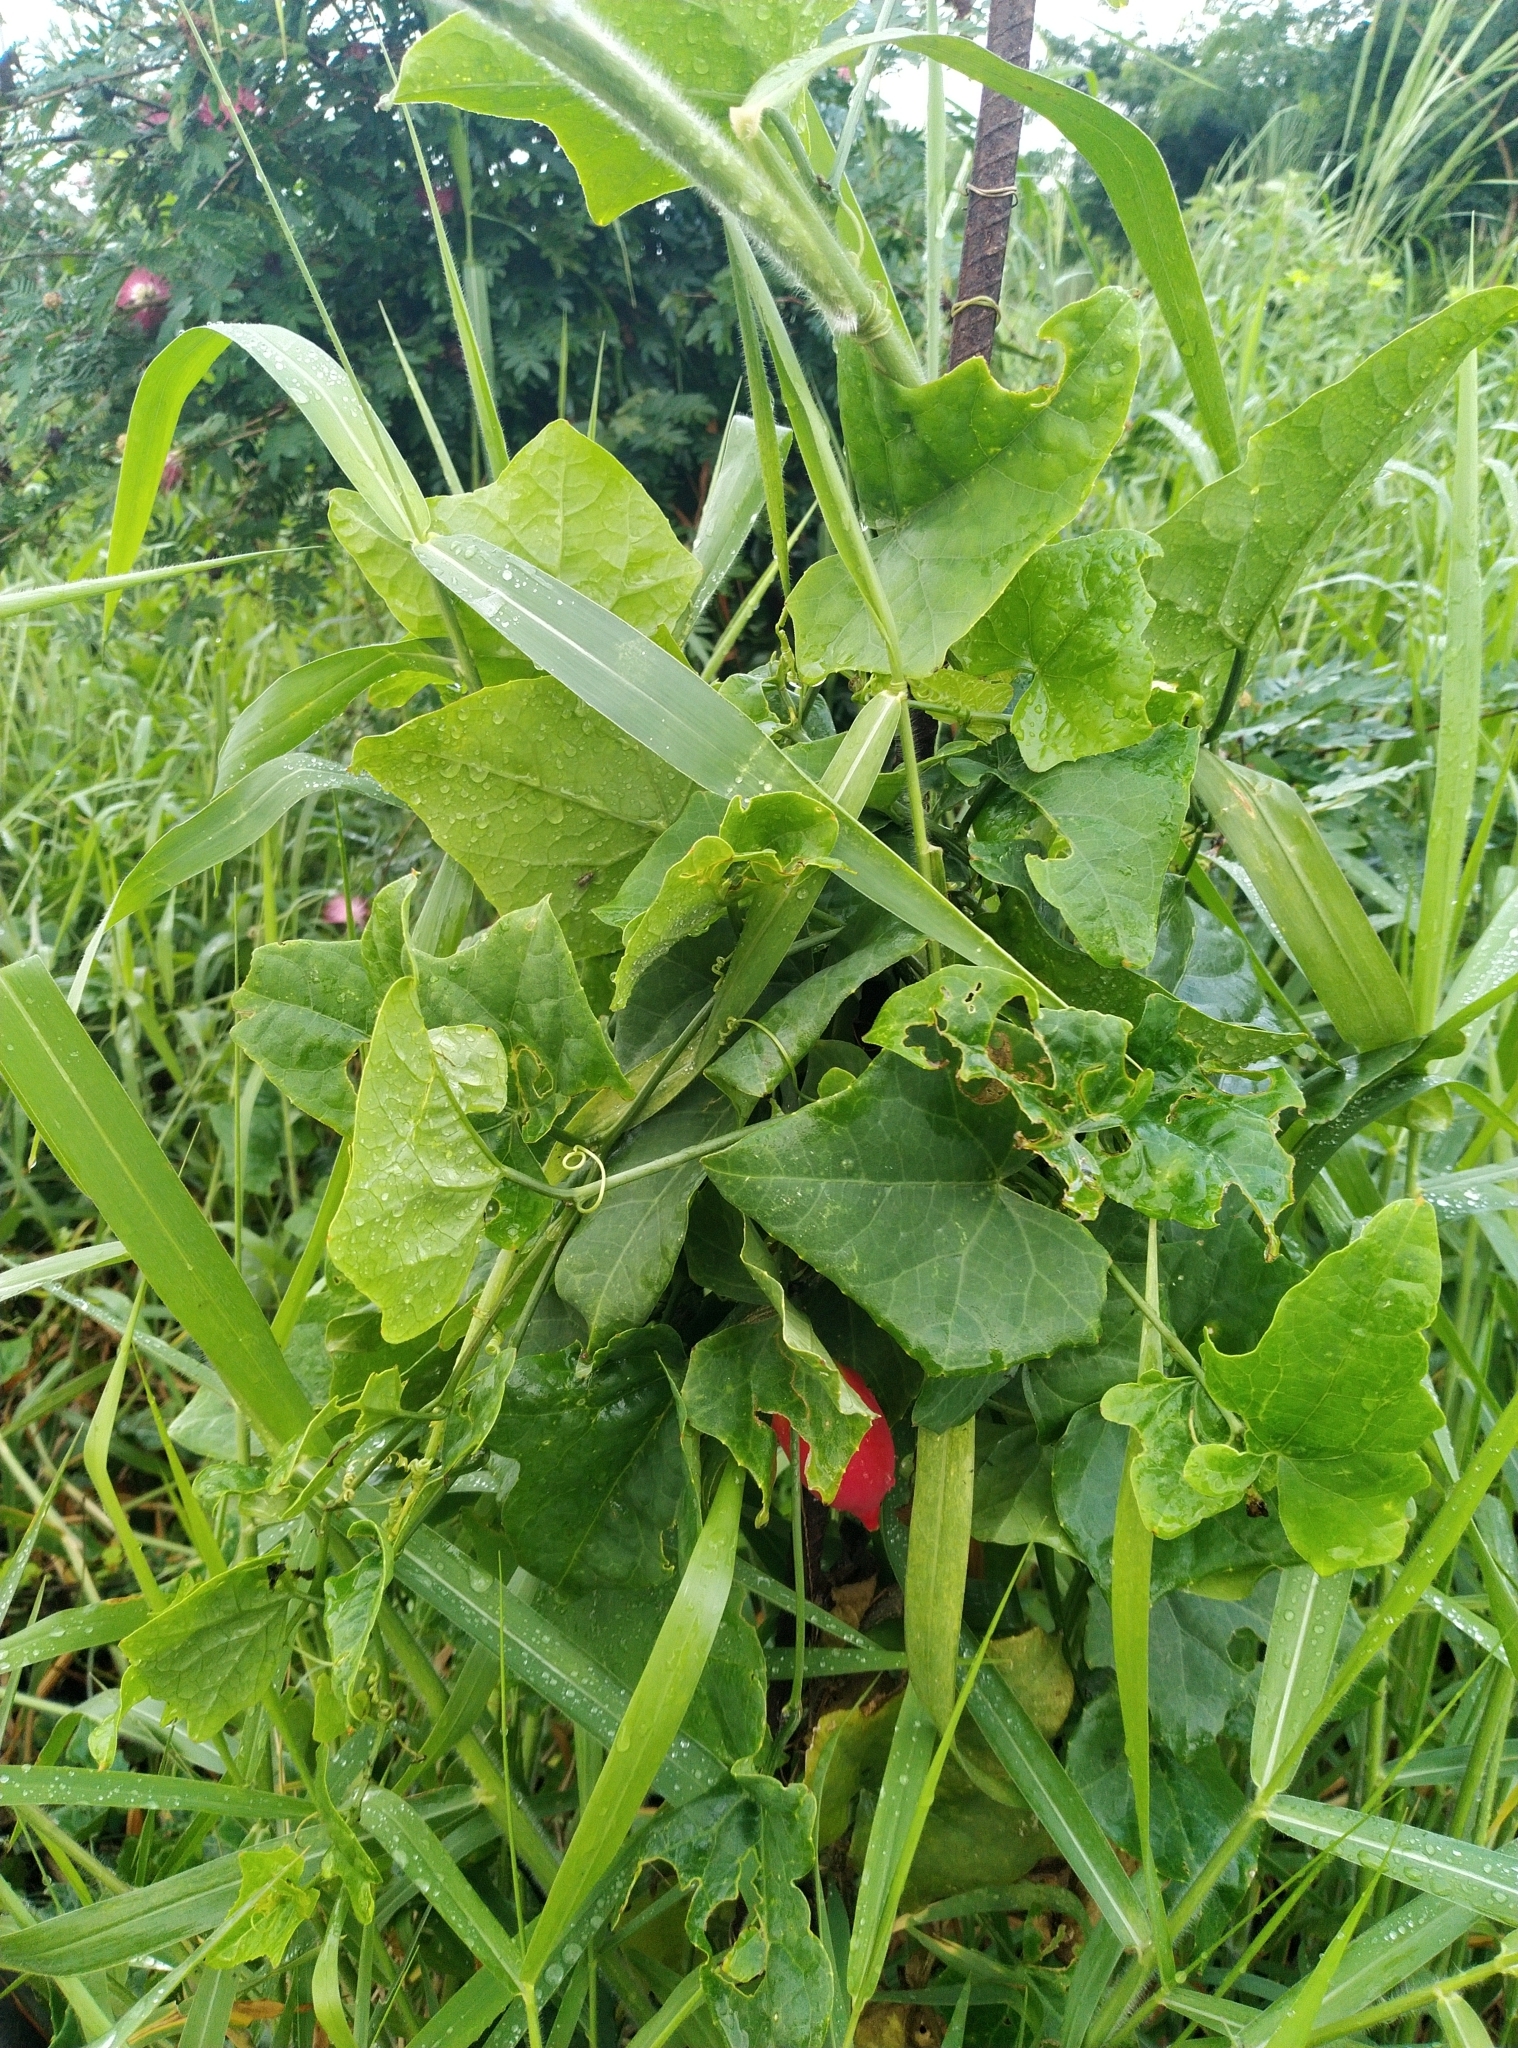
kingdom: Plantae
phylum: Tracheophyta
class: Magnoliopsida
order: Cucurbitales
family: Cucurbitaceae
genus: Coccinia
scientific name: Coccinia grandis
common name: Ivy gourd
